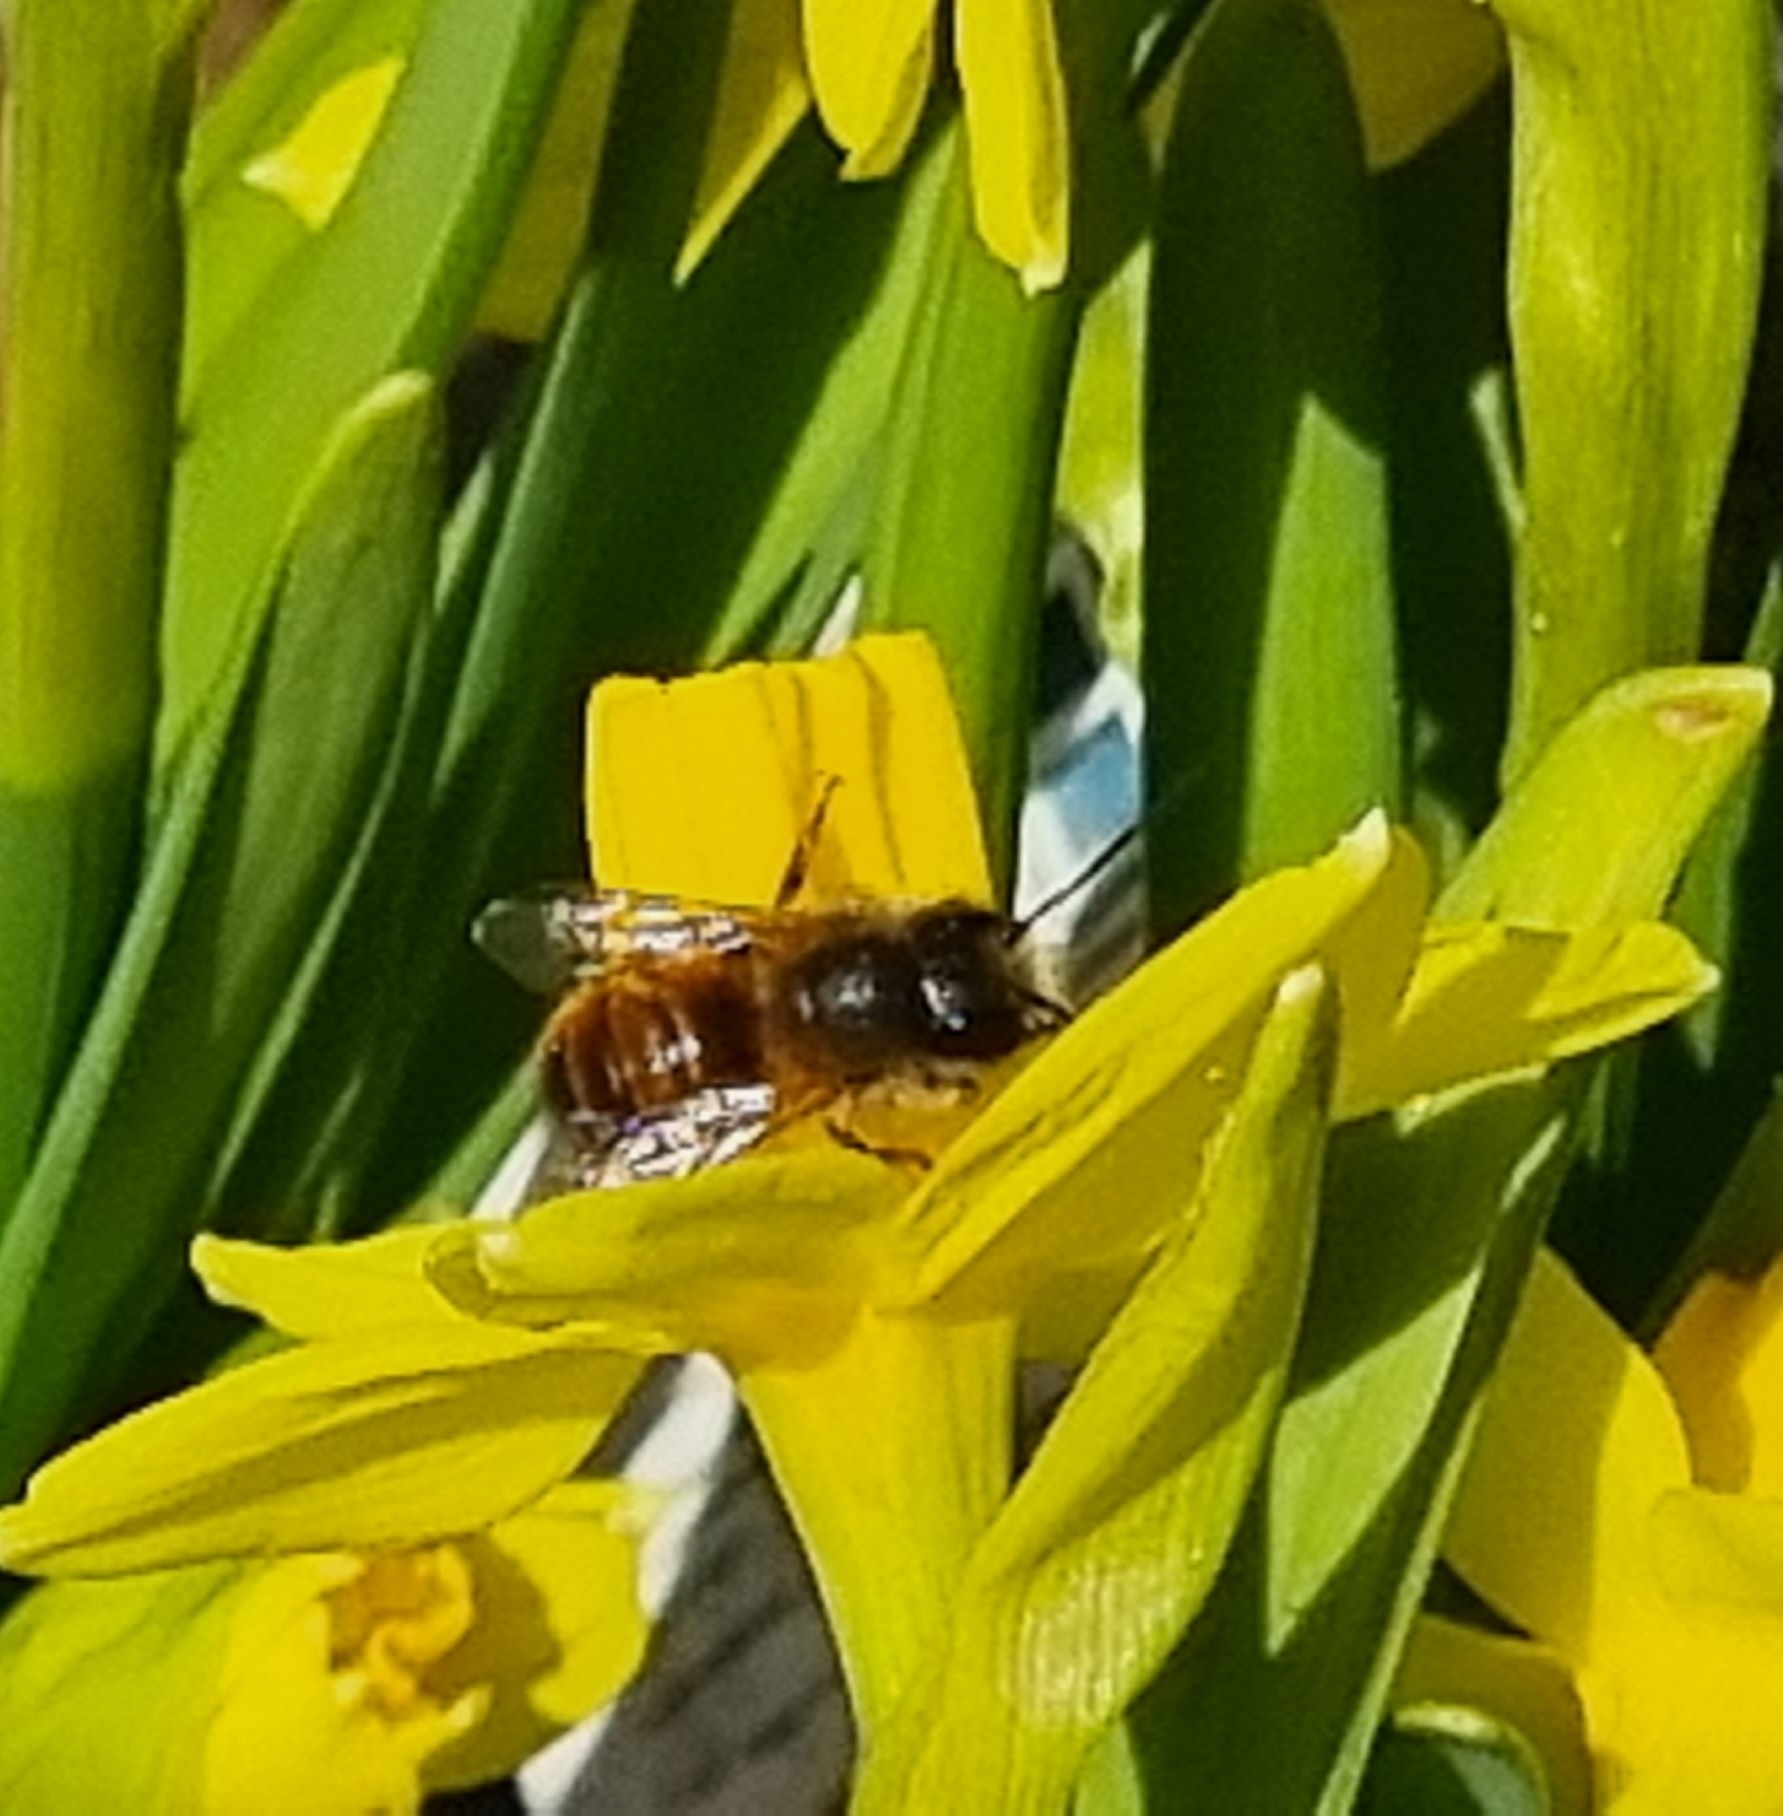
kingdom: Animalia
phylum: Arthropoda
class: Insecta
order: Hymenoptera
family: Megachilidae
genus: Osmia
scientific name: Osmia bicornis
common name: Red mason bee
